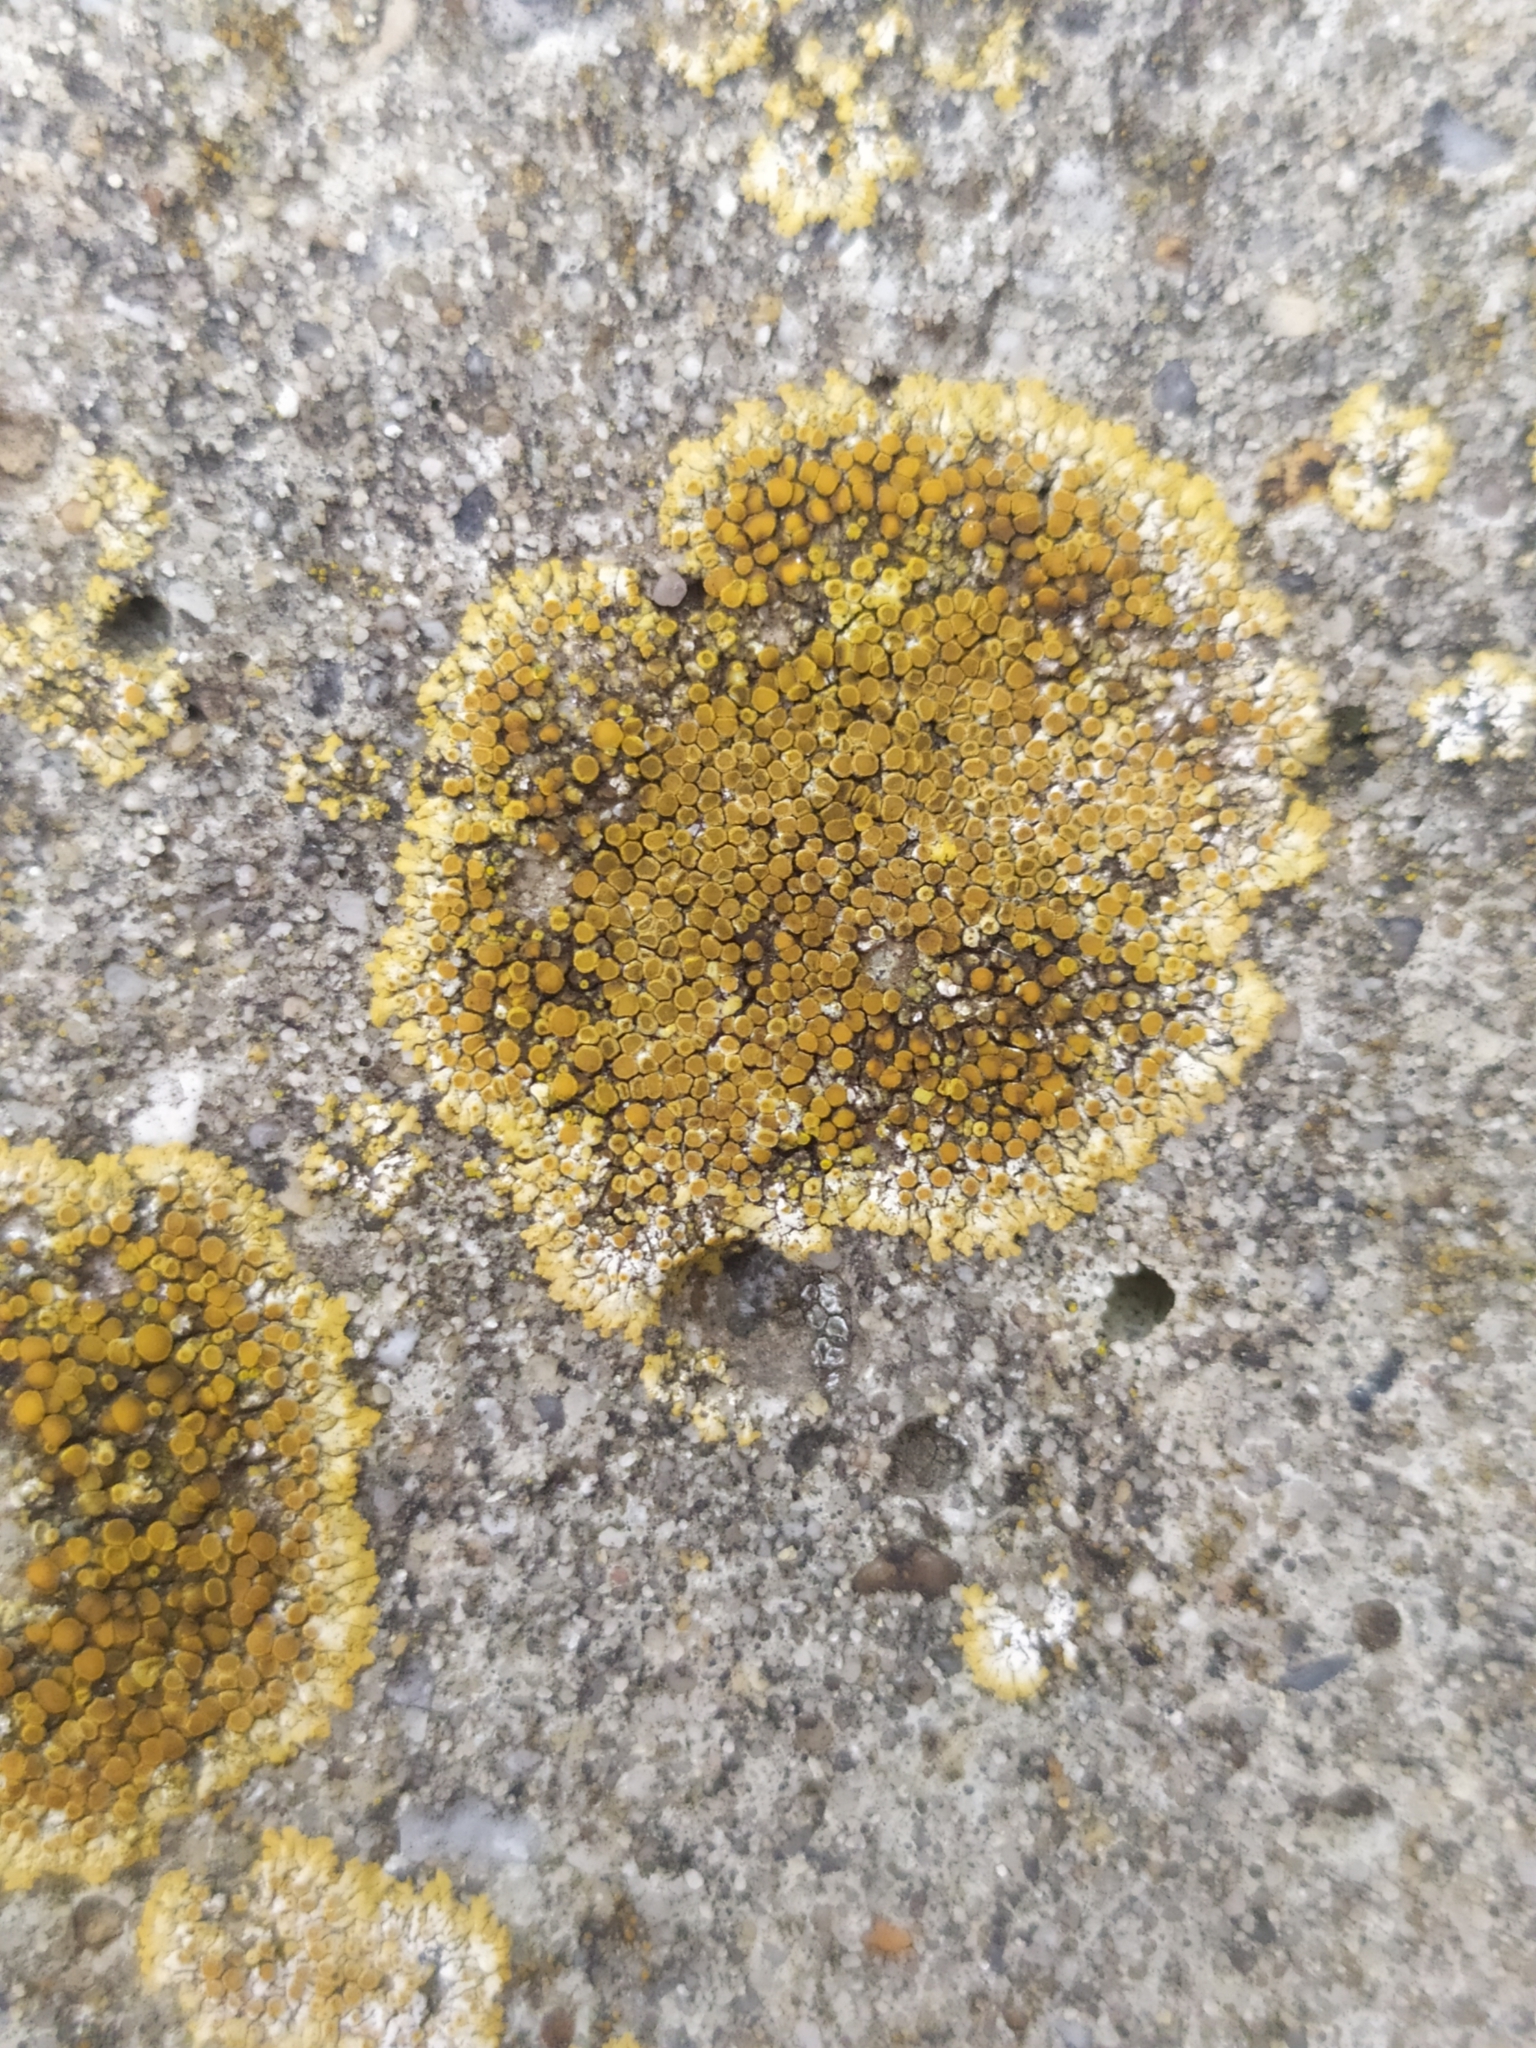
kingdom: Fungi
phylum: Ascomycota
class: Lecanoromycetes
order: Teloschistales
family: Teloschistaceae
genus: Calogaya
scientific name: Calogaya pusilla
